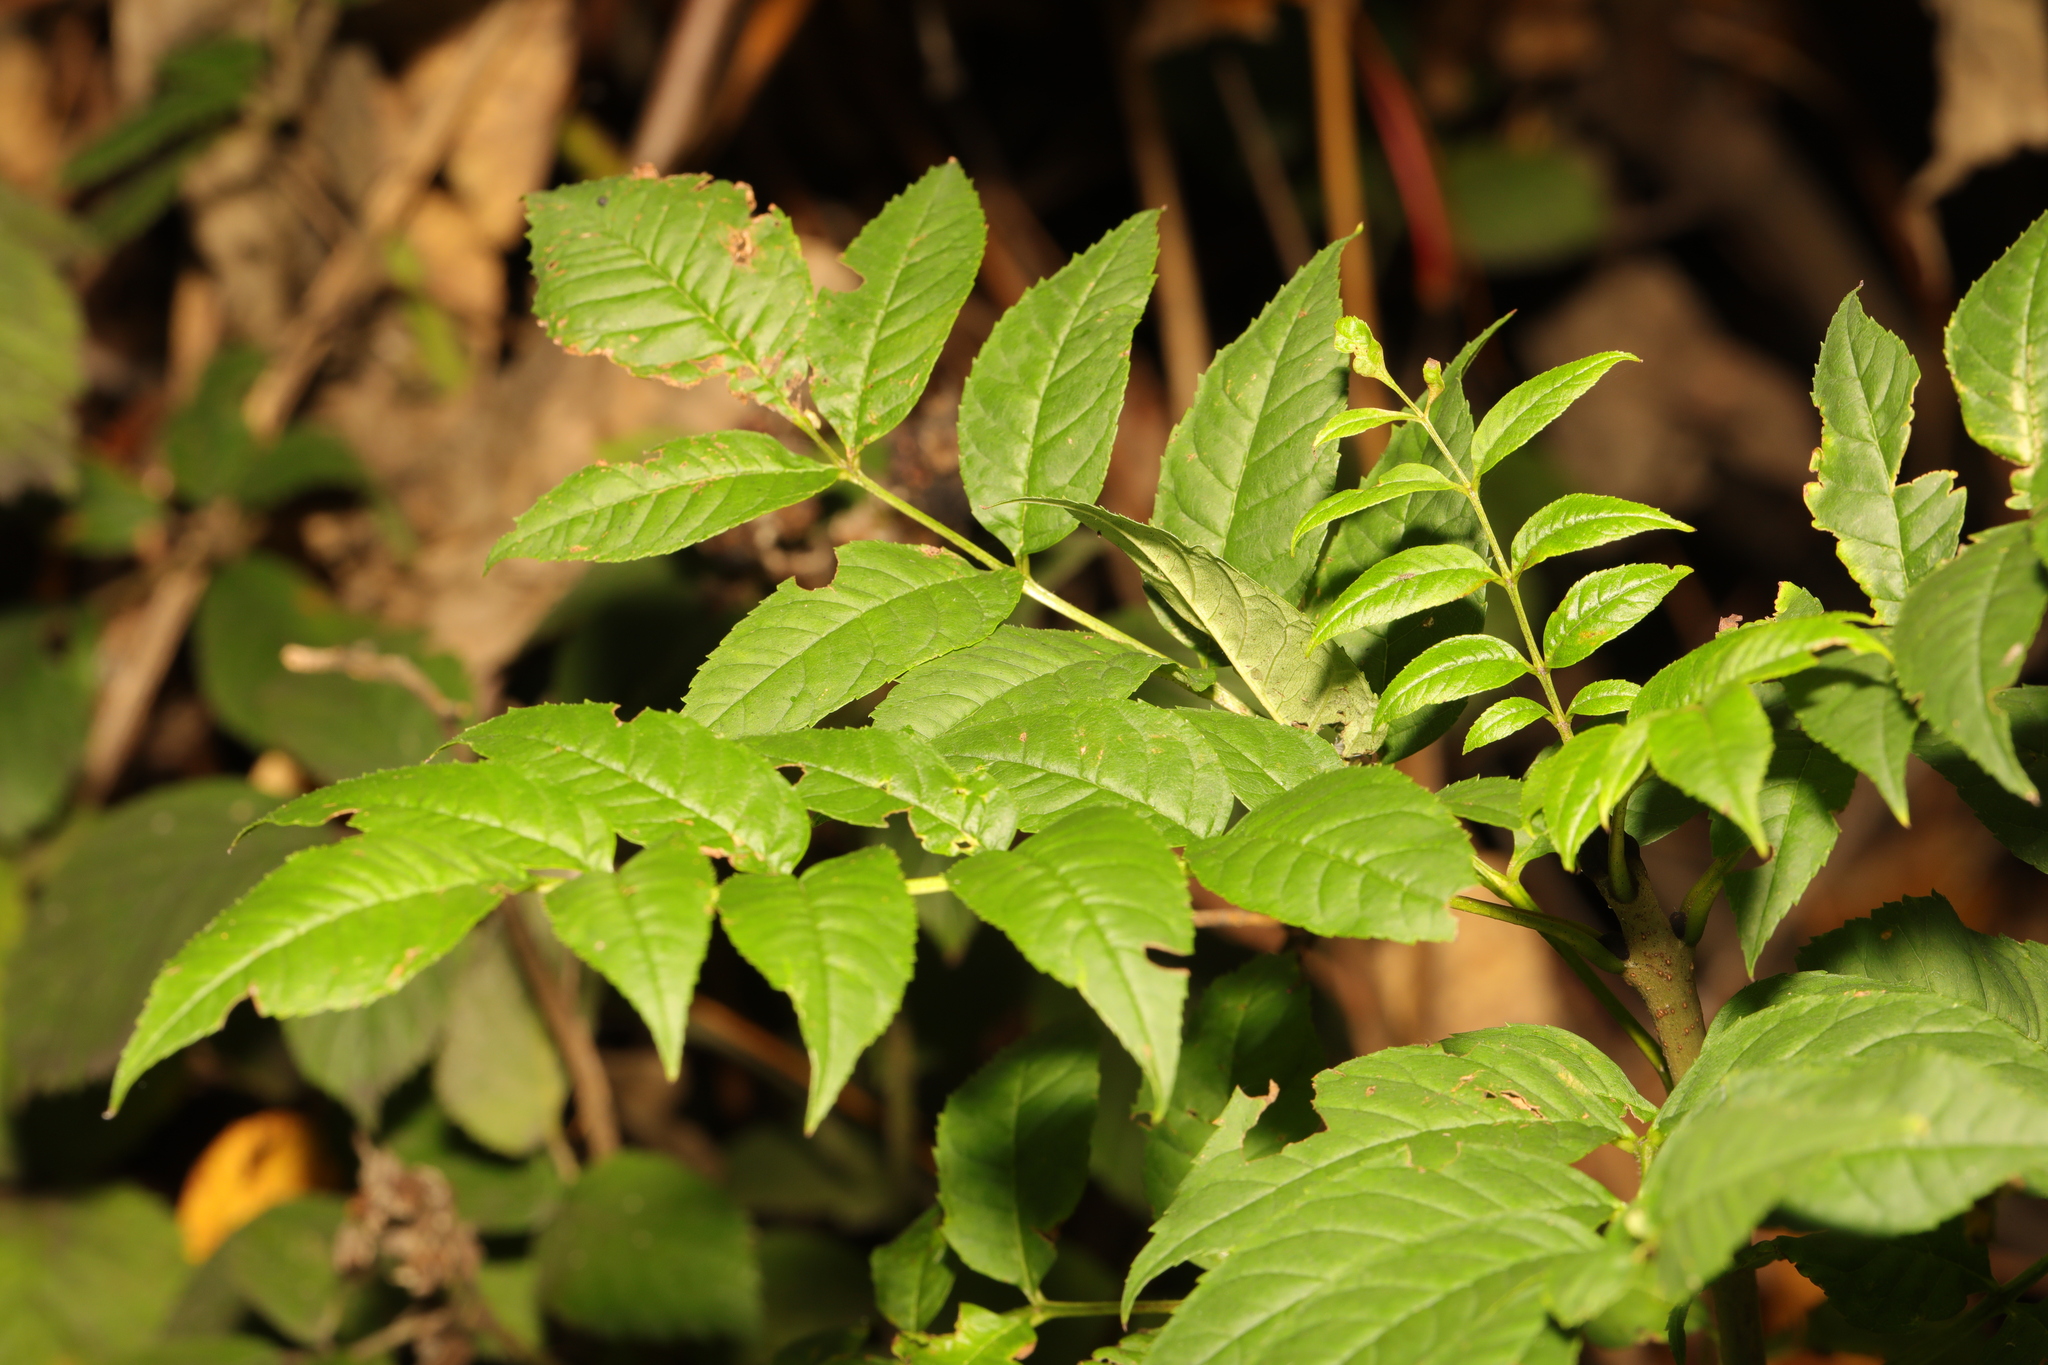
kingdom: Plantae
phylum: Tracheophyta
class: Magnoliopsida
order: Lamiales
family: Oleaceae
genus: Fraxinus
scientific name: Fraxinus excelsior
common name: European ash
